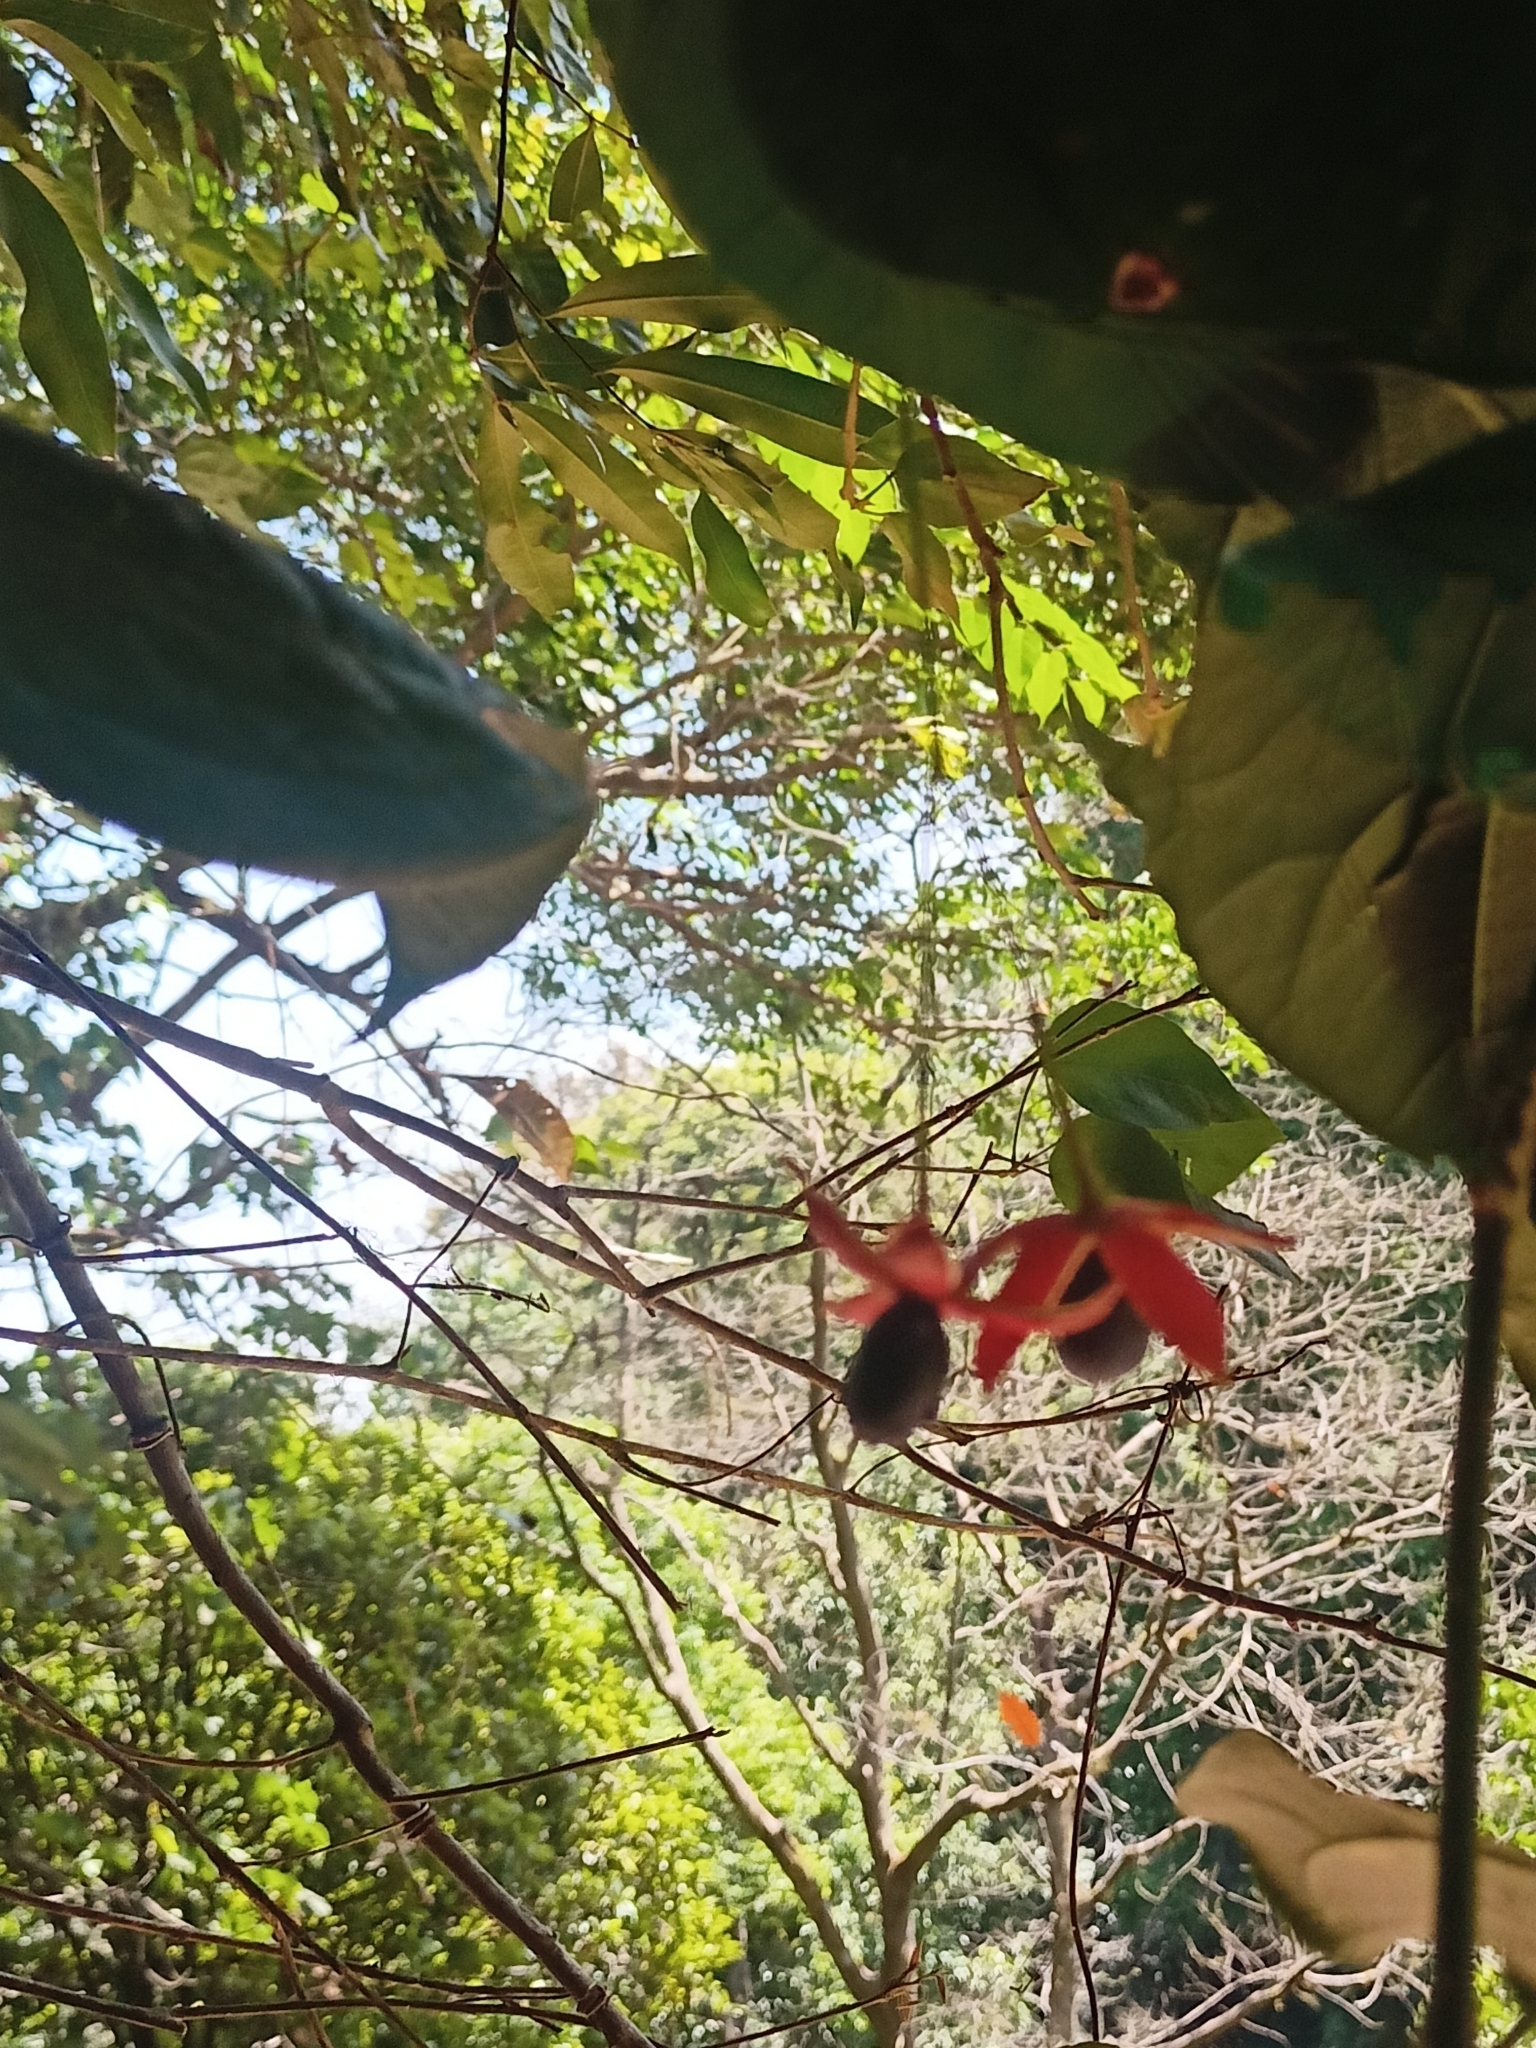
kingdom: Plantae
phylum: Tracheophyta
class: Magnoliopsida
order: Santalales
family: Erythropalaceae
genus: Erythropalum
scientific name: Erythropalum scandens
